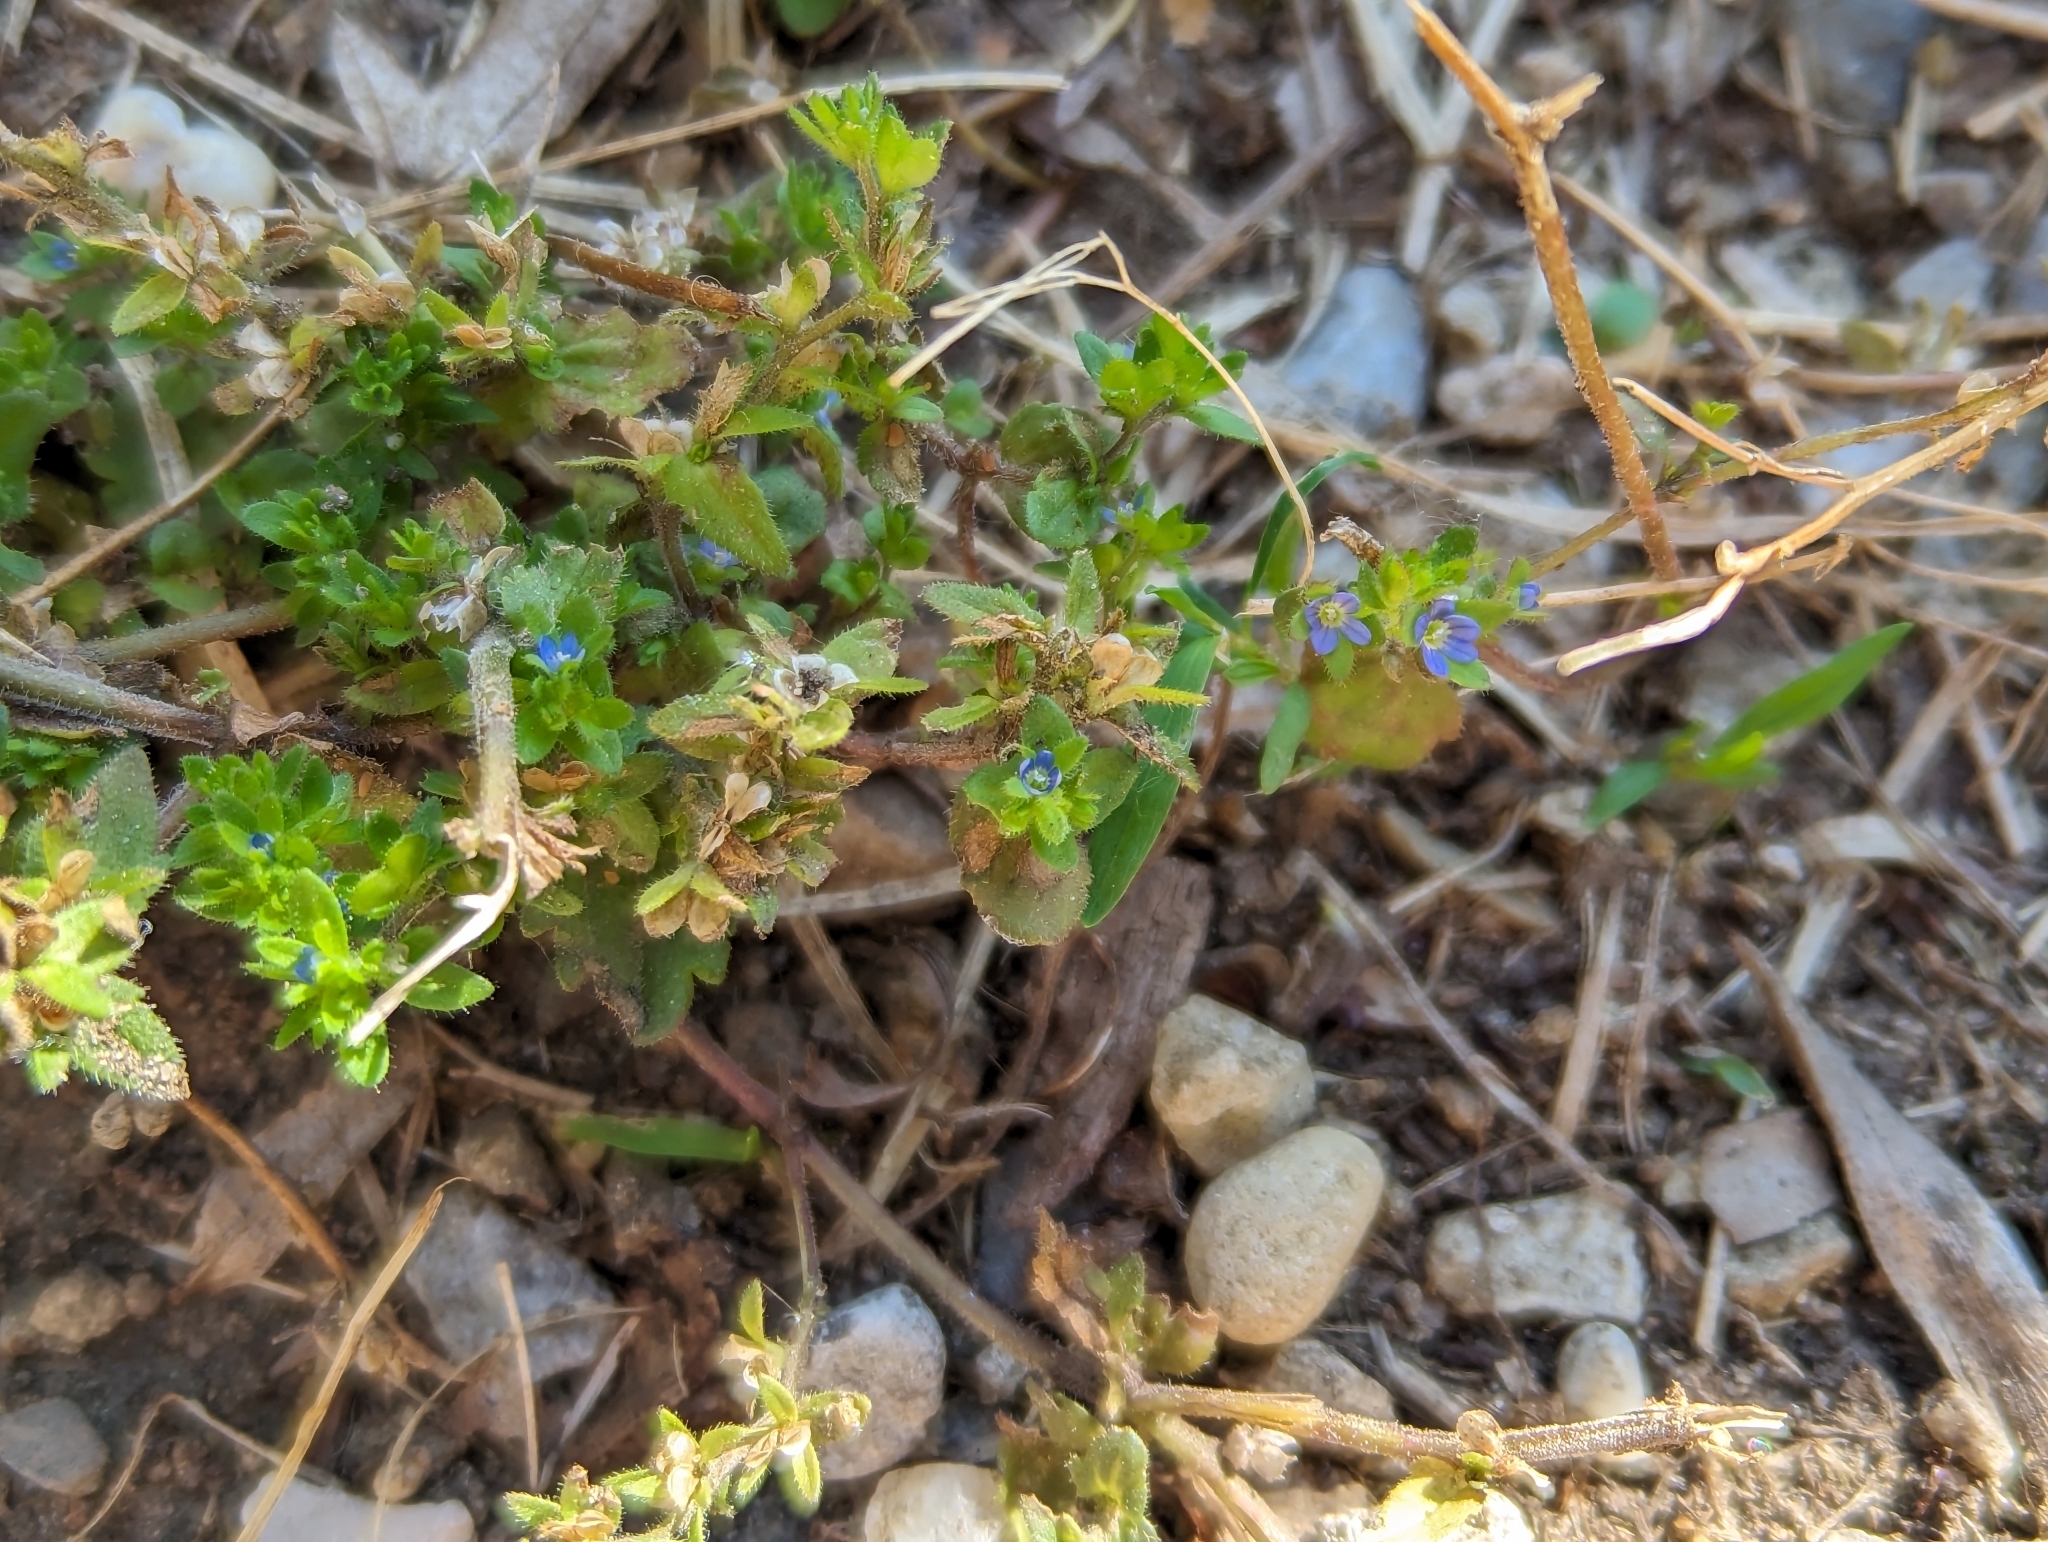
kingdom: Plantae
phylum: Tracheophyta
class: Magnoliopsida
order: Lamiales
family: Plantaginaceae
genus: Veronica
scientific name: Veronica arvensis
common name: Corn speedwell
